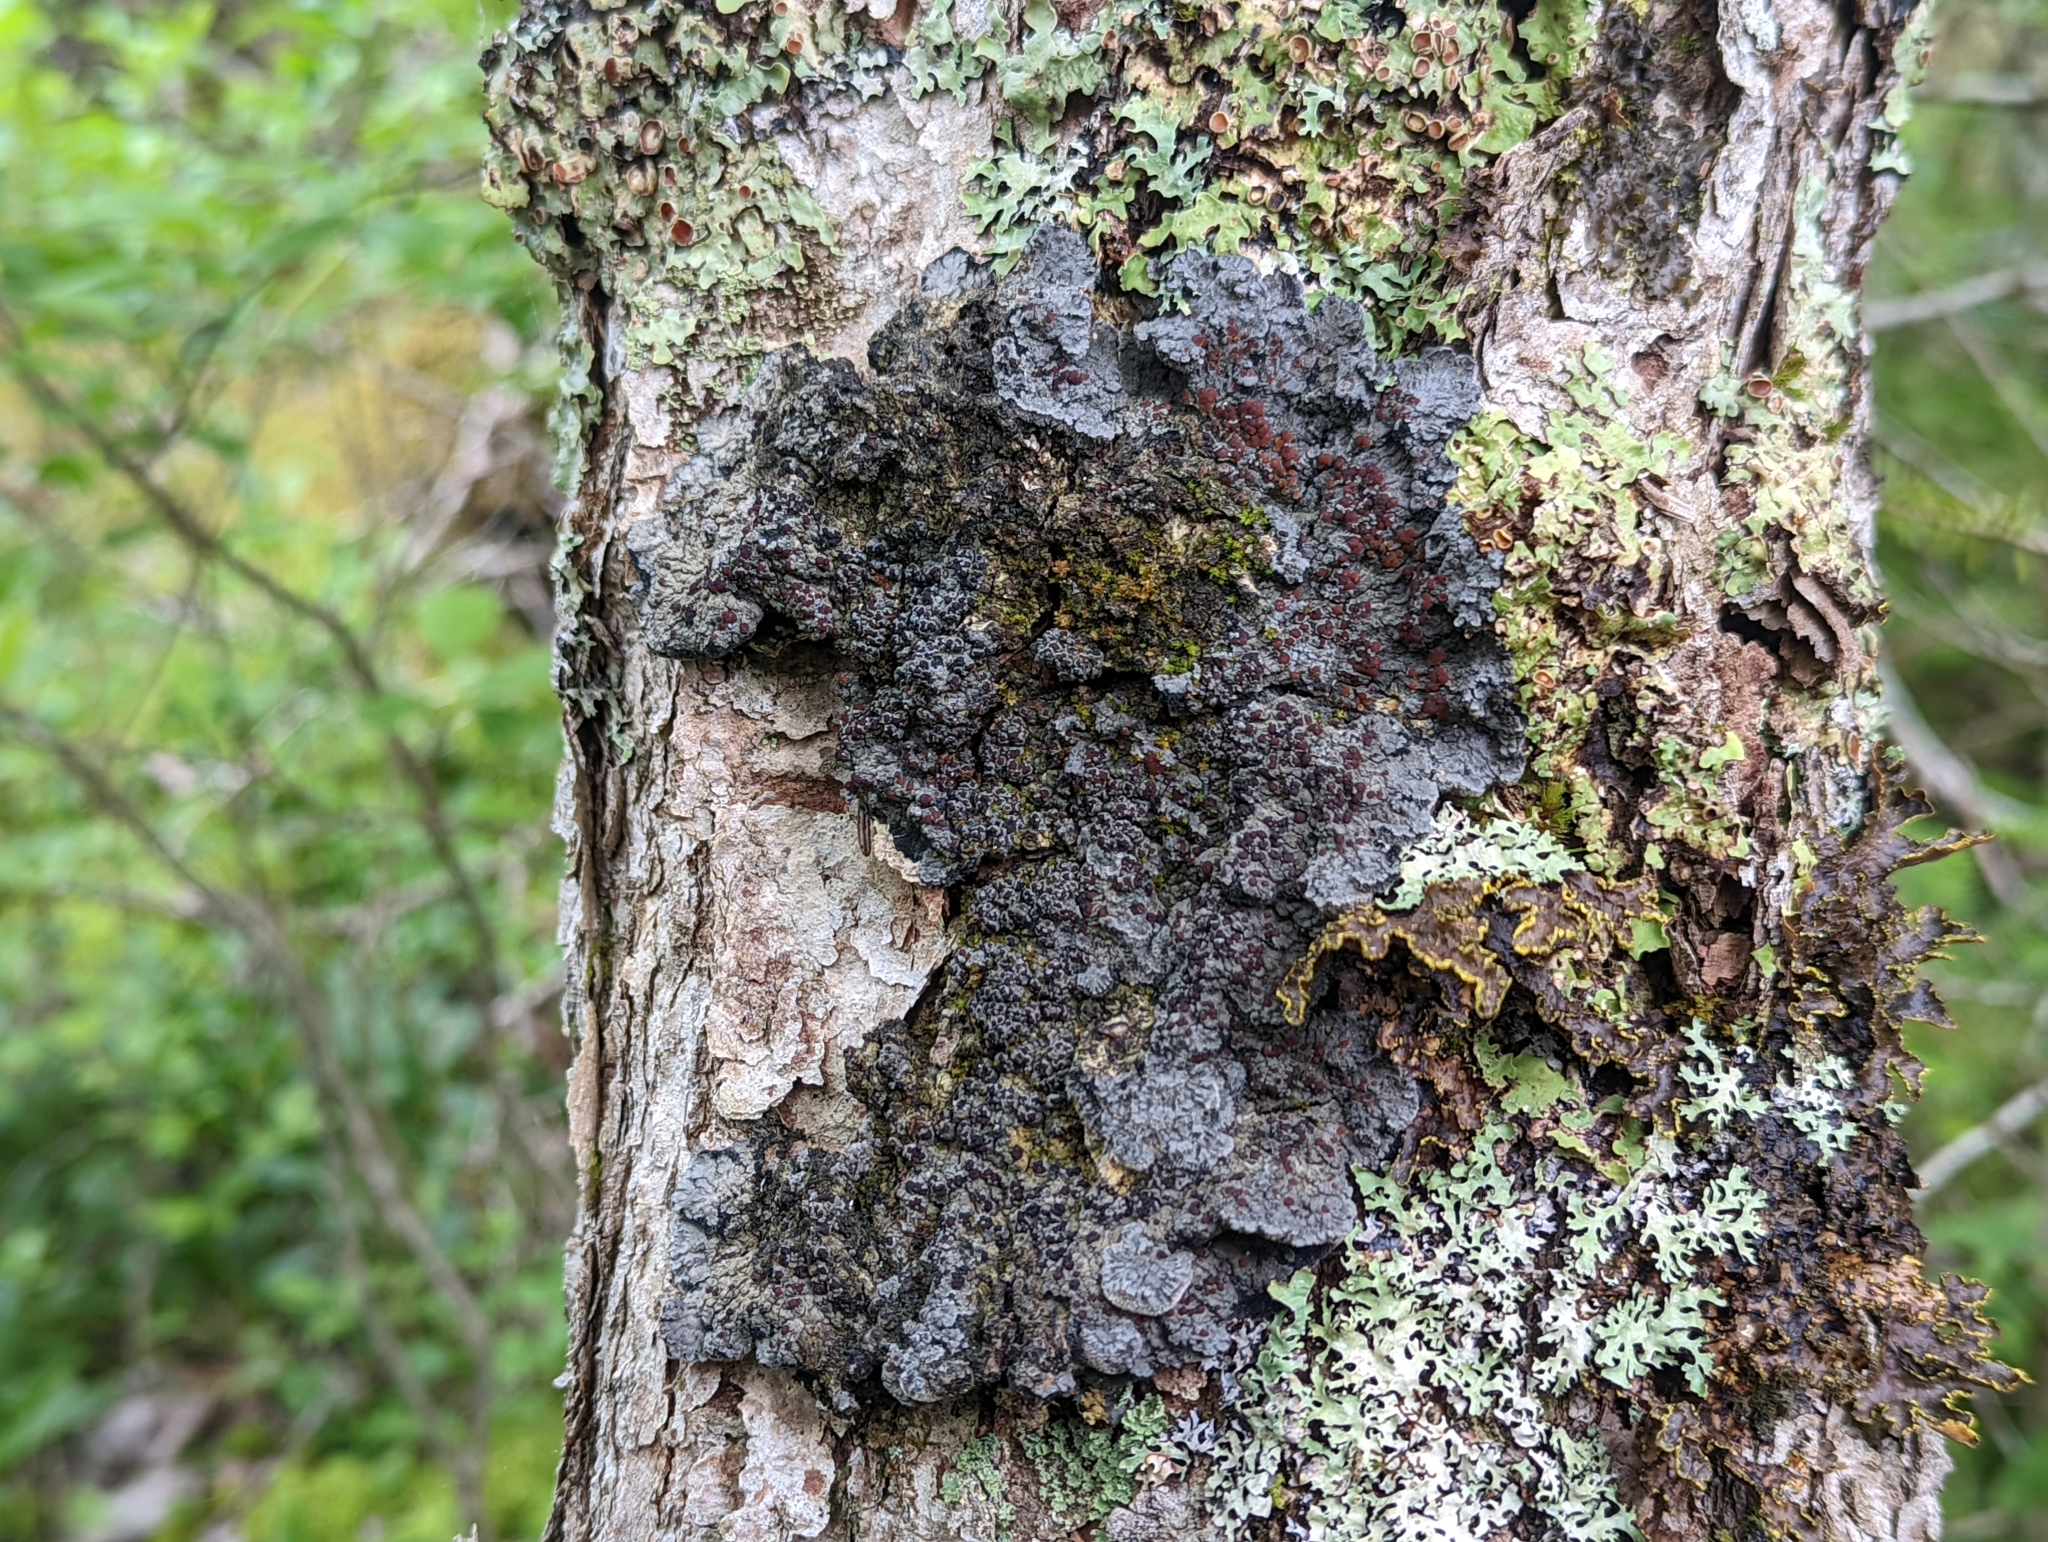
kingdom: Fungi
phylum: Ascomycota
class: Lecanoromycetes
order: Peltigerales
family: Pannariaceae
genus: Pectenia
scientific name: Pectenia plumbea
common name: Bladder stalks
